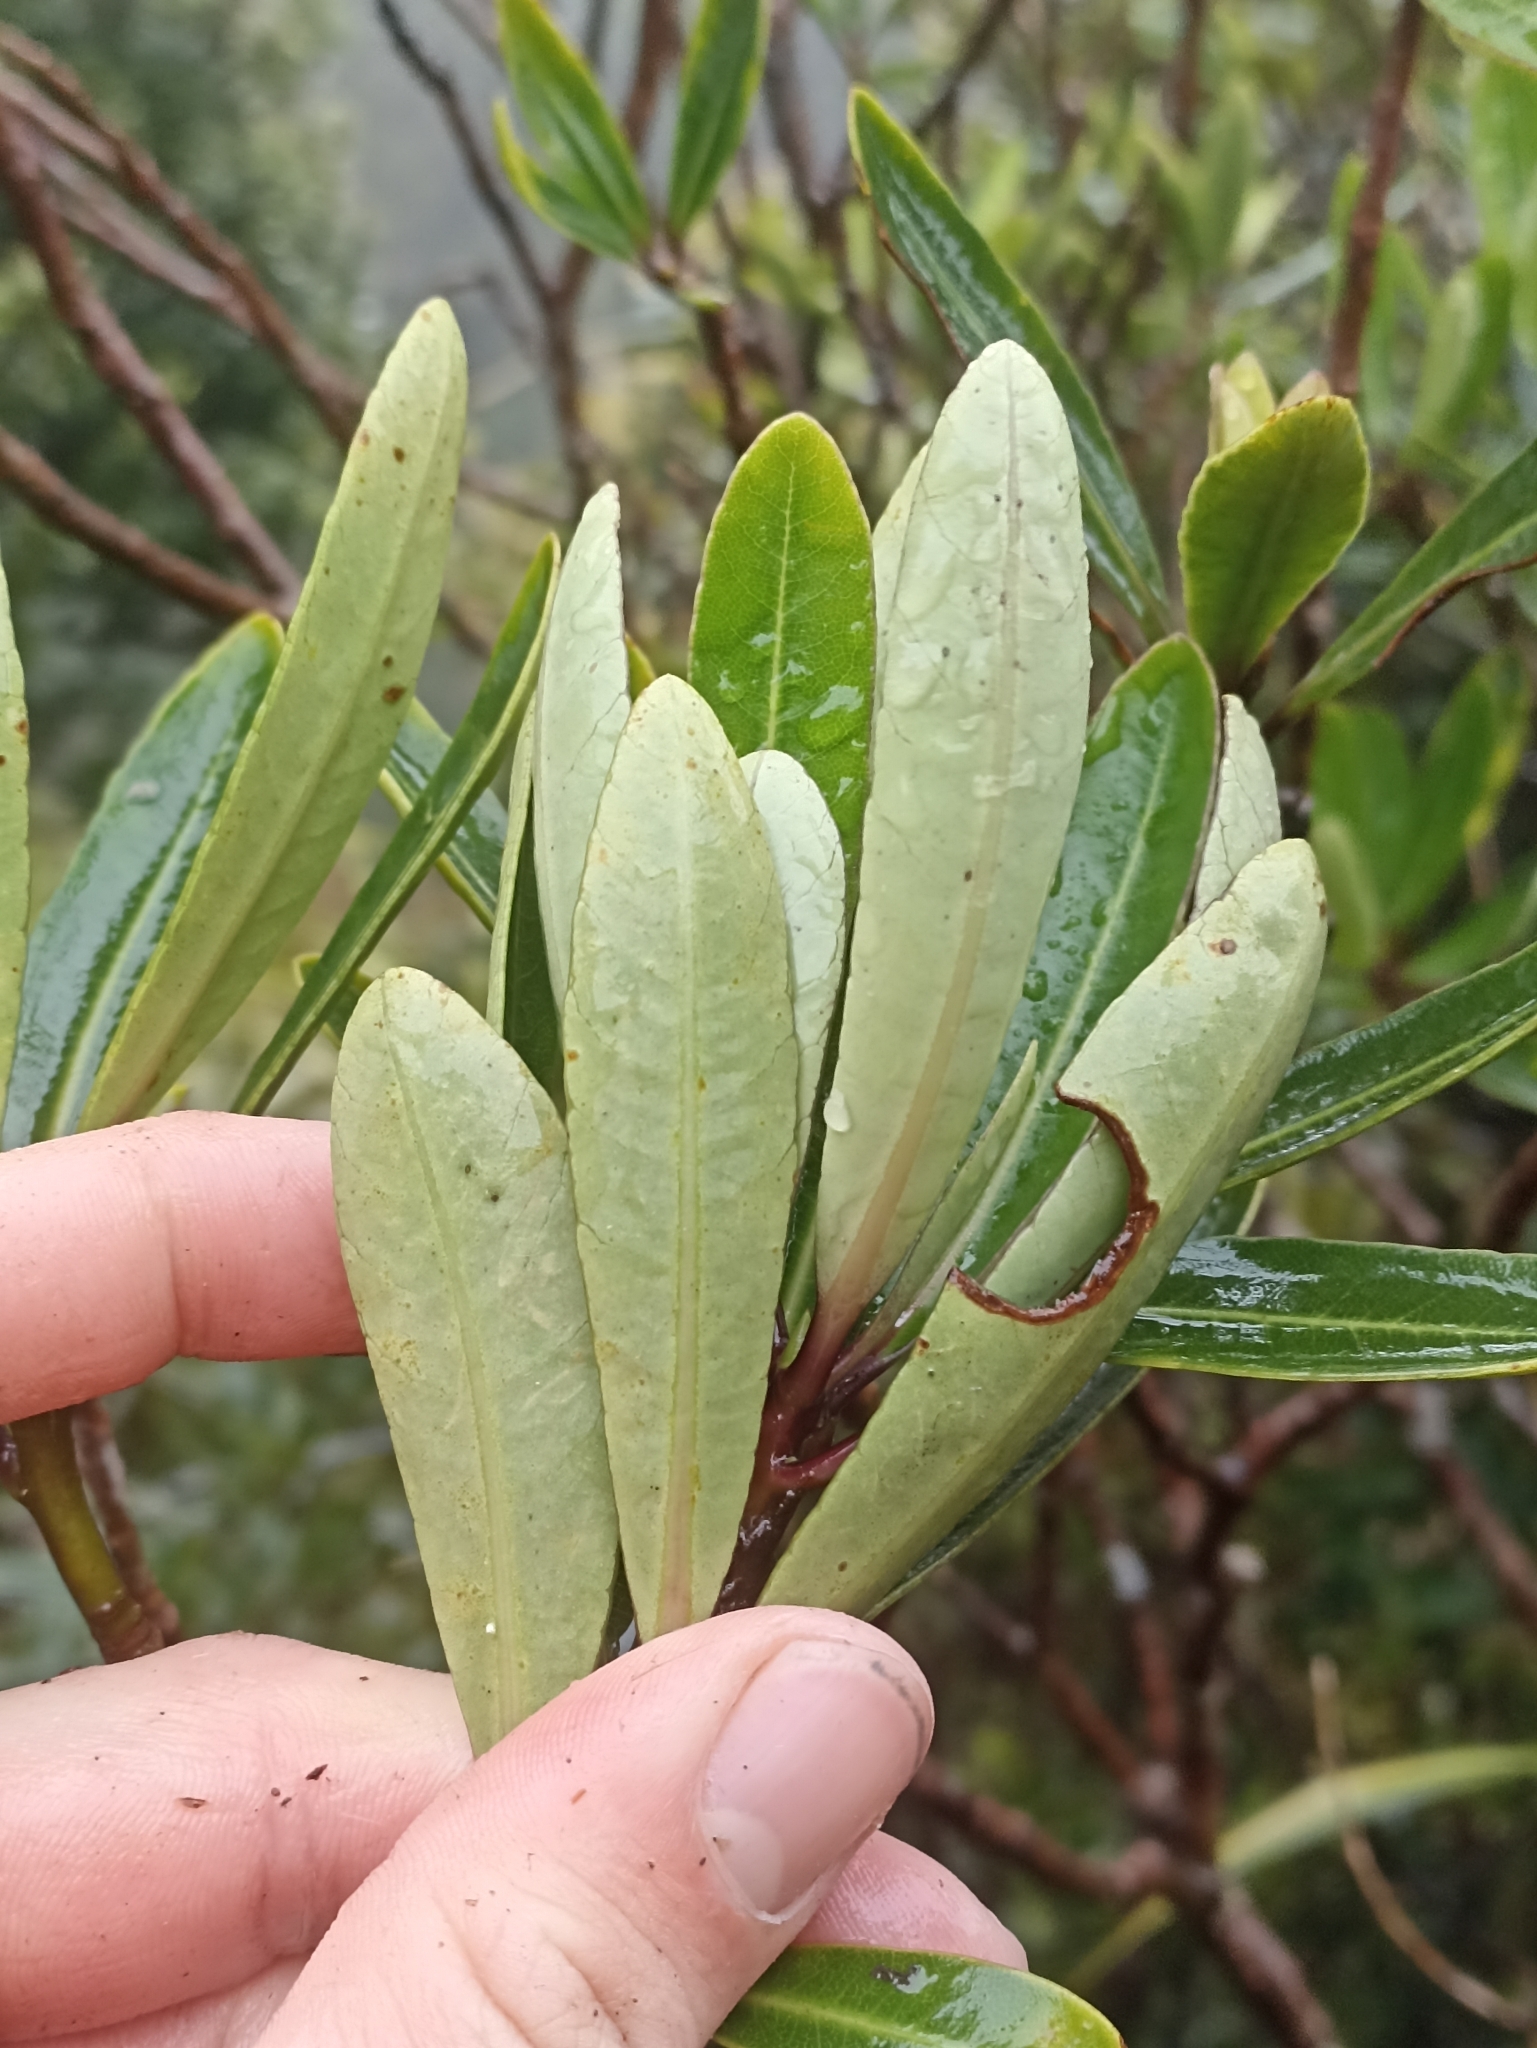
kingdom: Plantae
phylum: Tracheophyta
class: Magnoliopsida
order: Apiales
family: Pittosporaceae
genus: Pittosporum
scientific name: Pittosporum kirkii
